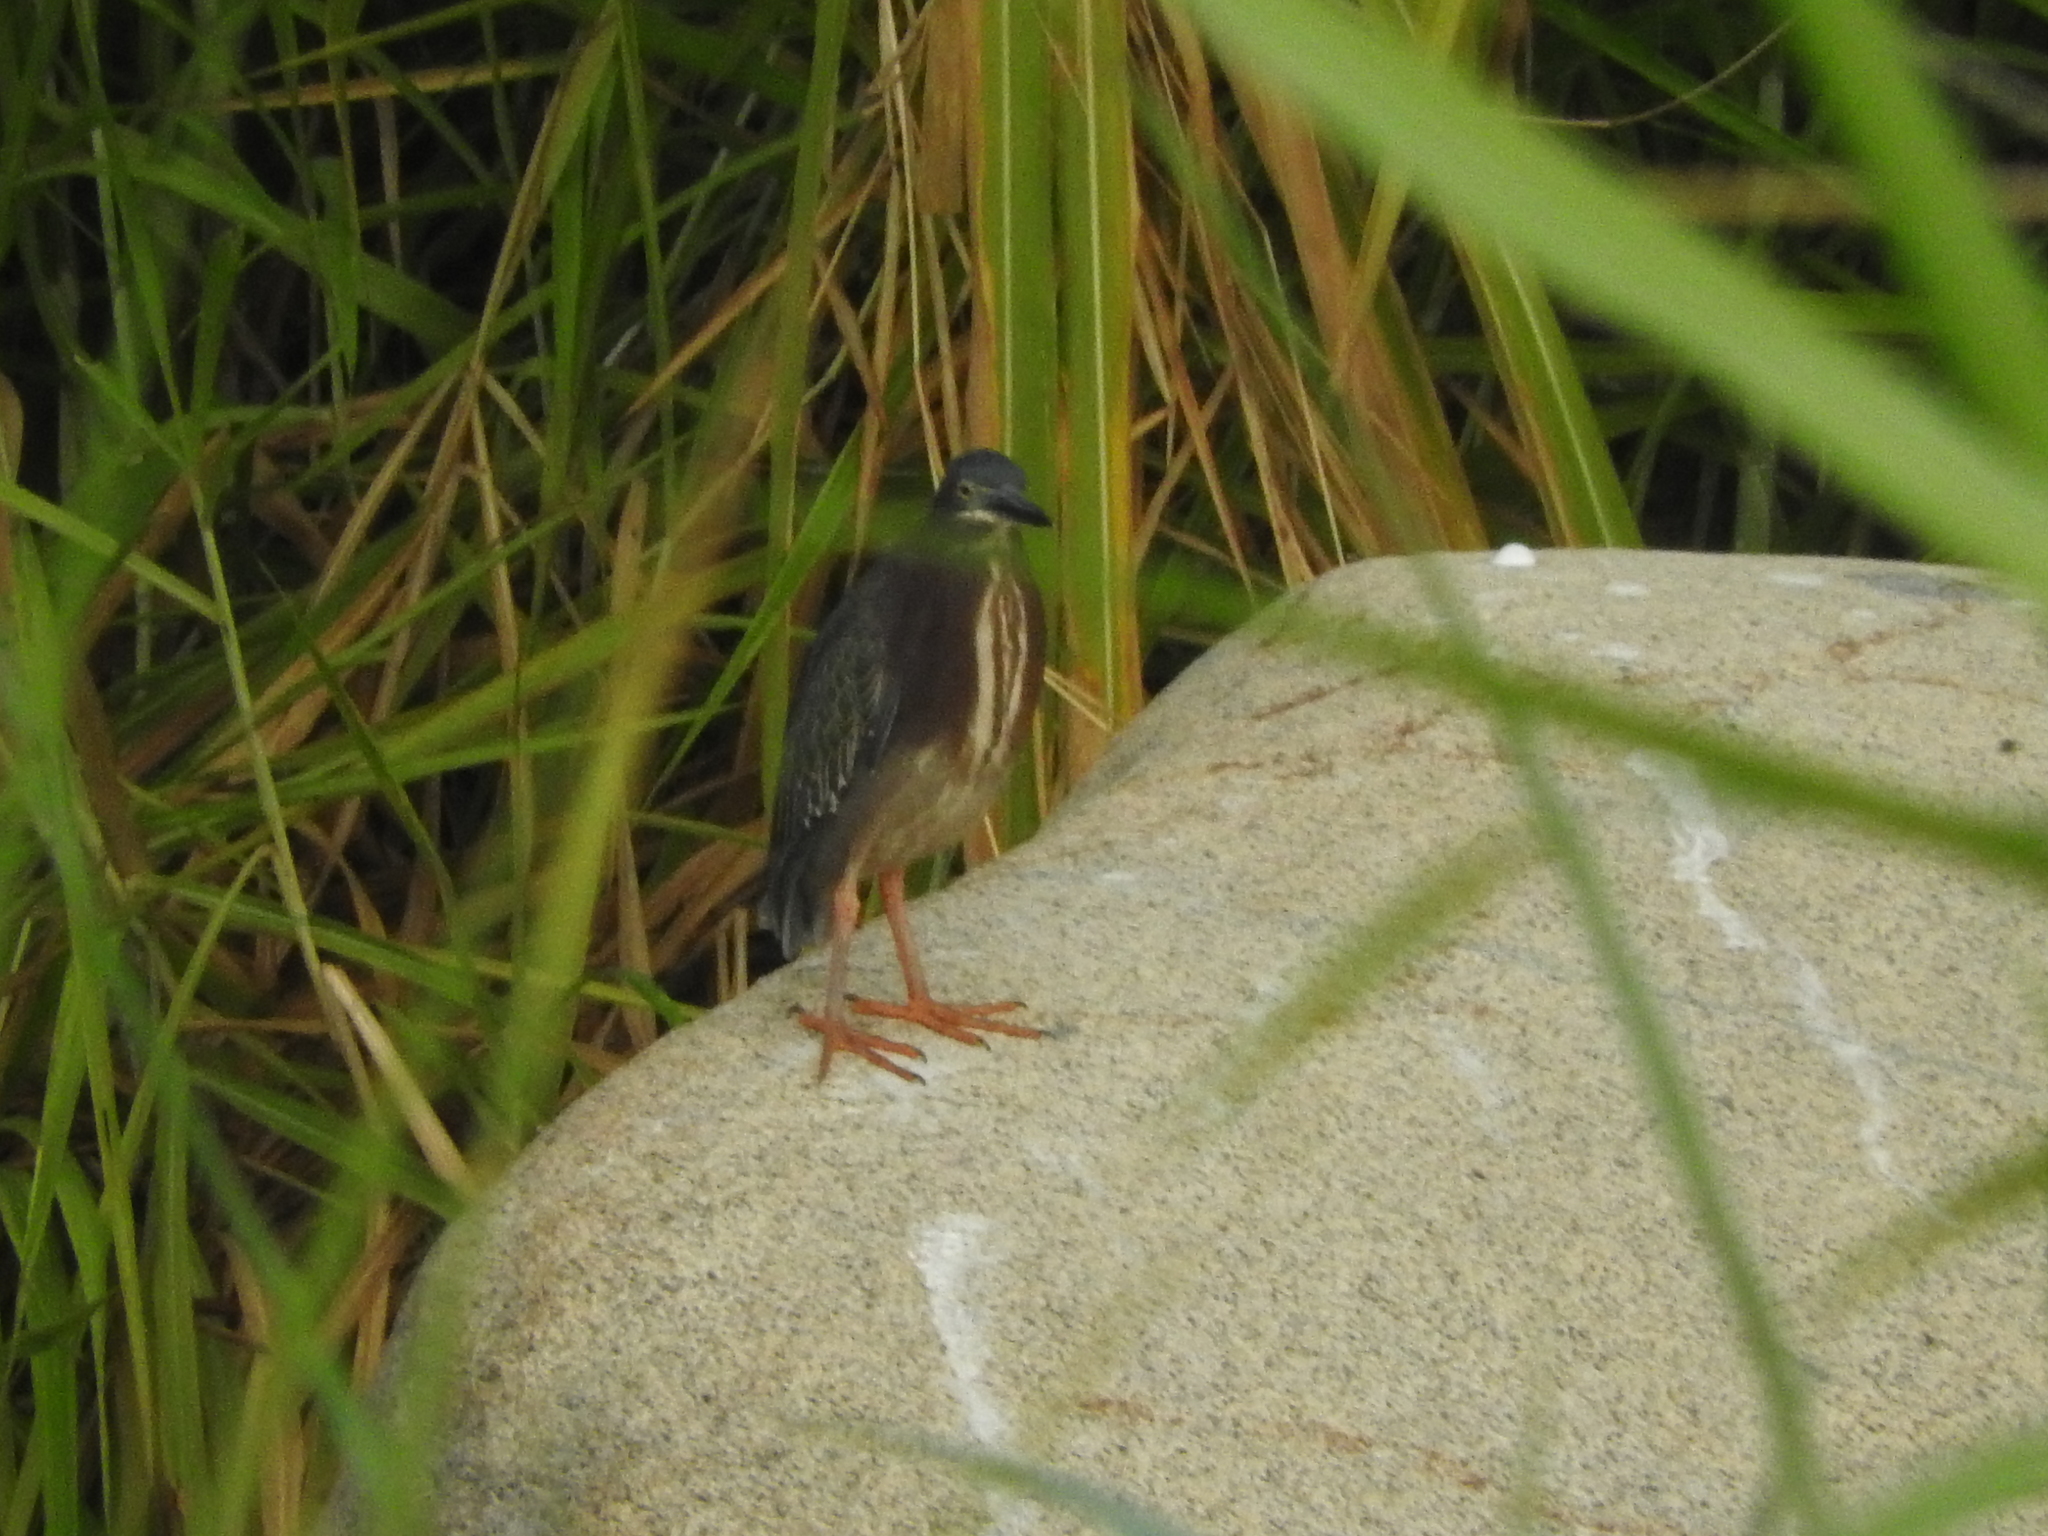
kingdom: Animalia
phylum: Chordata
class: Aves
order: Pelecaniformes
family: Ardeidae
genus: Butorides
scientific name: Butorides virescens
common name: Green heron
